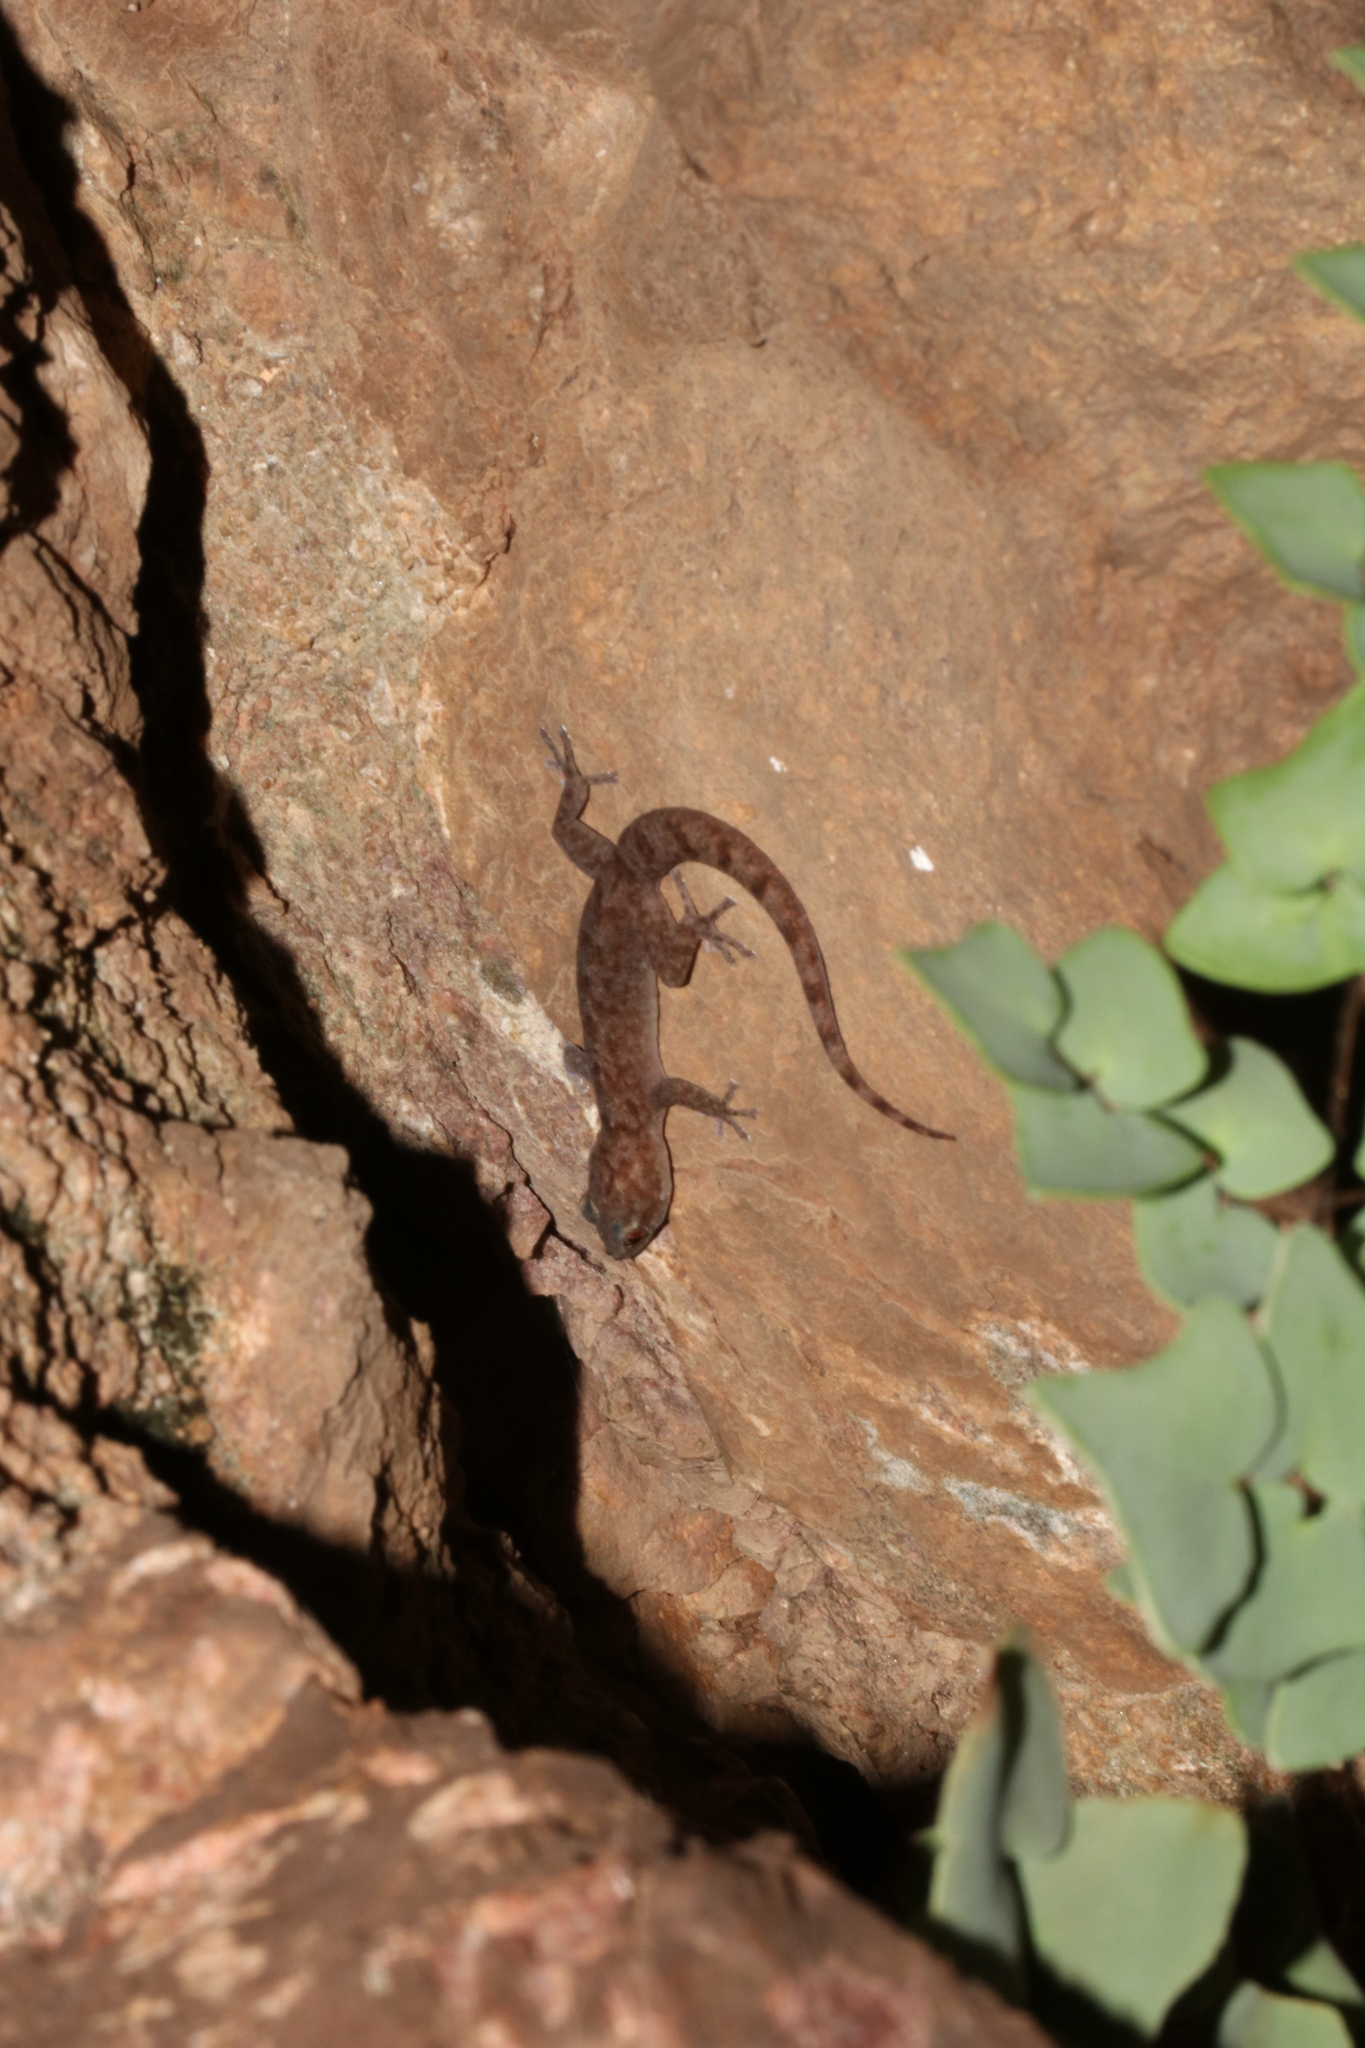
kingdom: Animalia
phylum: Chordata
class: Squamata
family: Gekkonidae
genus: Afroedura
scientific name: Afroedura pienaari
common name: Pienaar’s rock gecko
